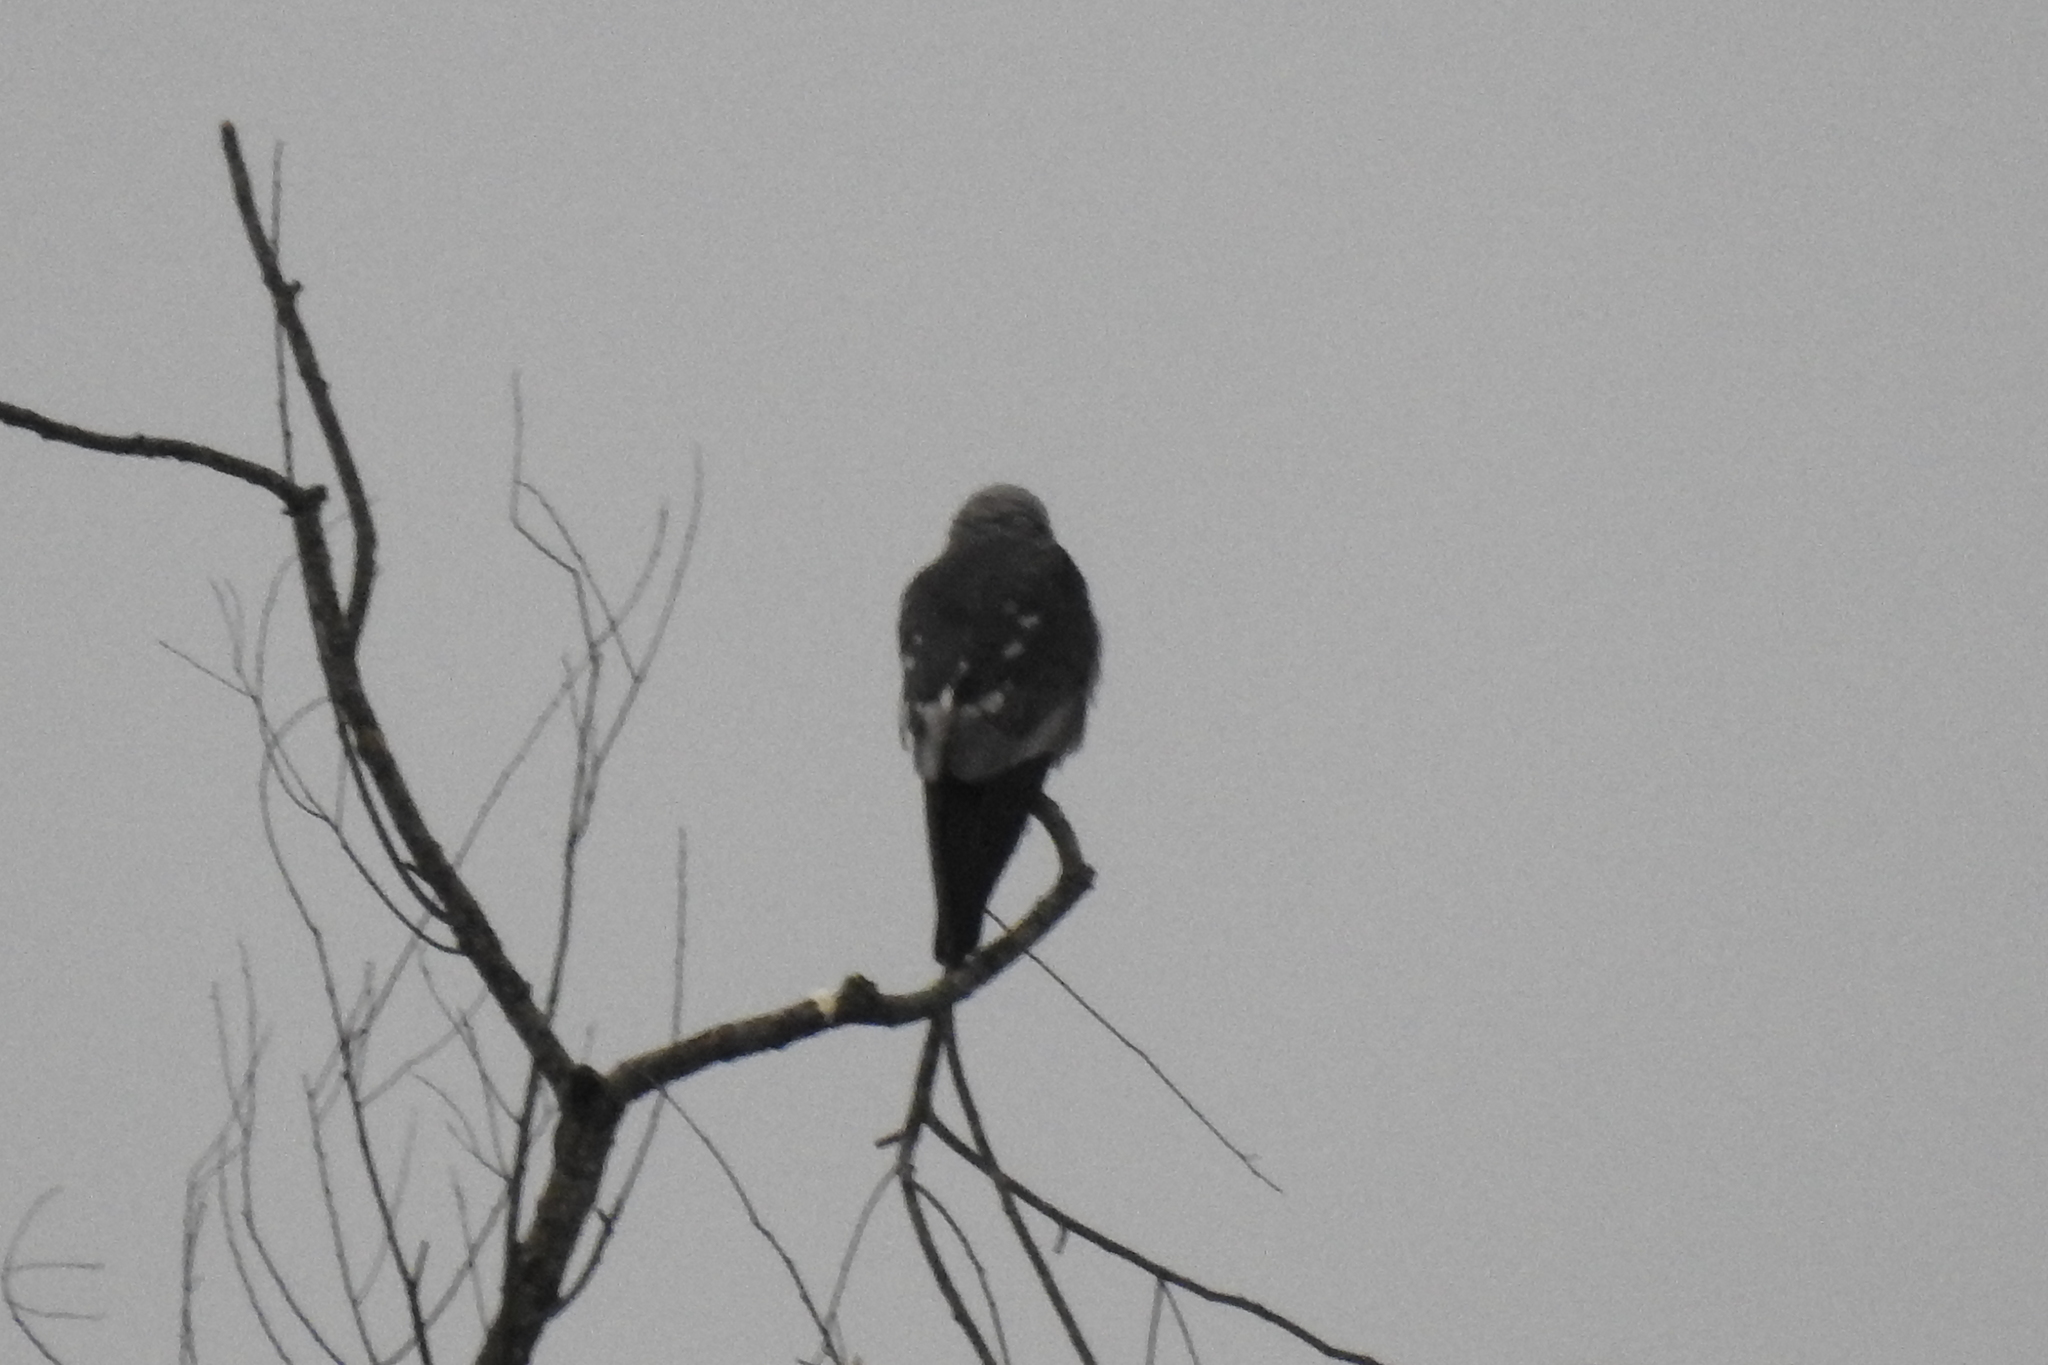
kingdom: Animalia
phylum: Chordata
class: Aves
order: Accipitriformes
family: Accipitridae
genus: Ictinia
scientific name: Ictinia mississippiensis
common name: Mississippi kite
